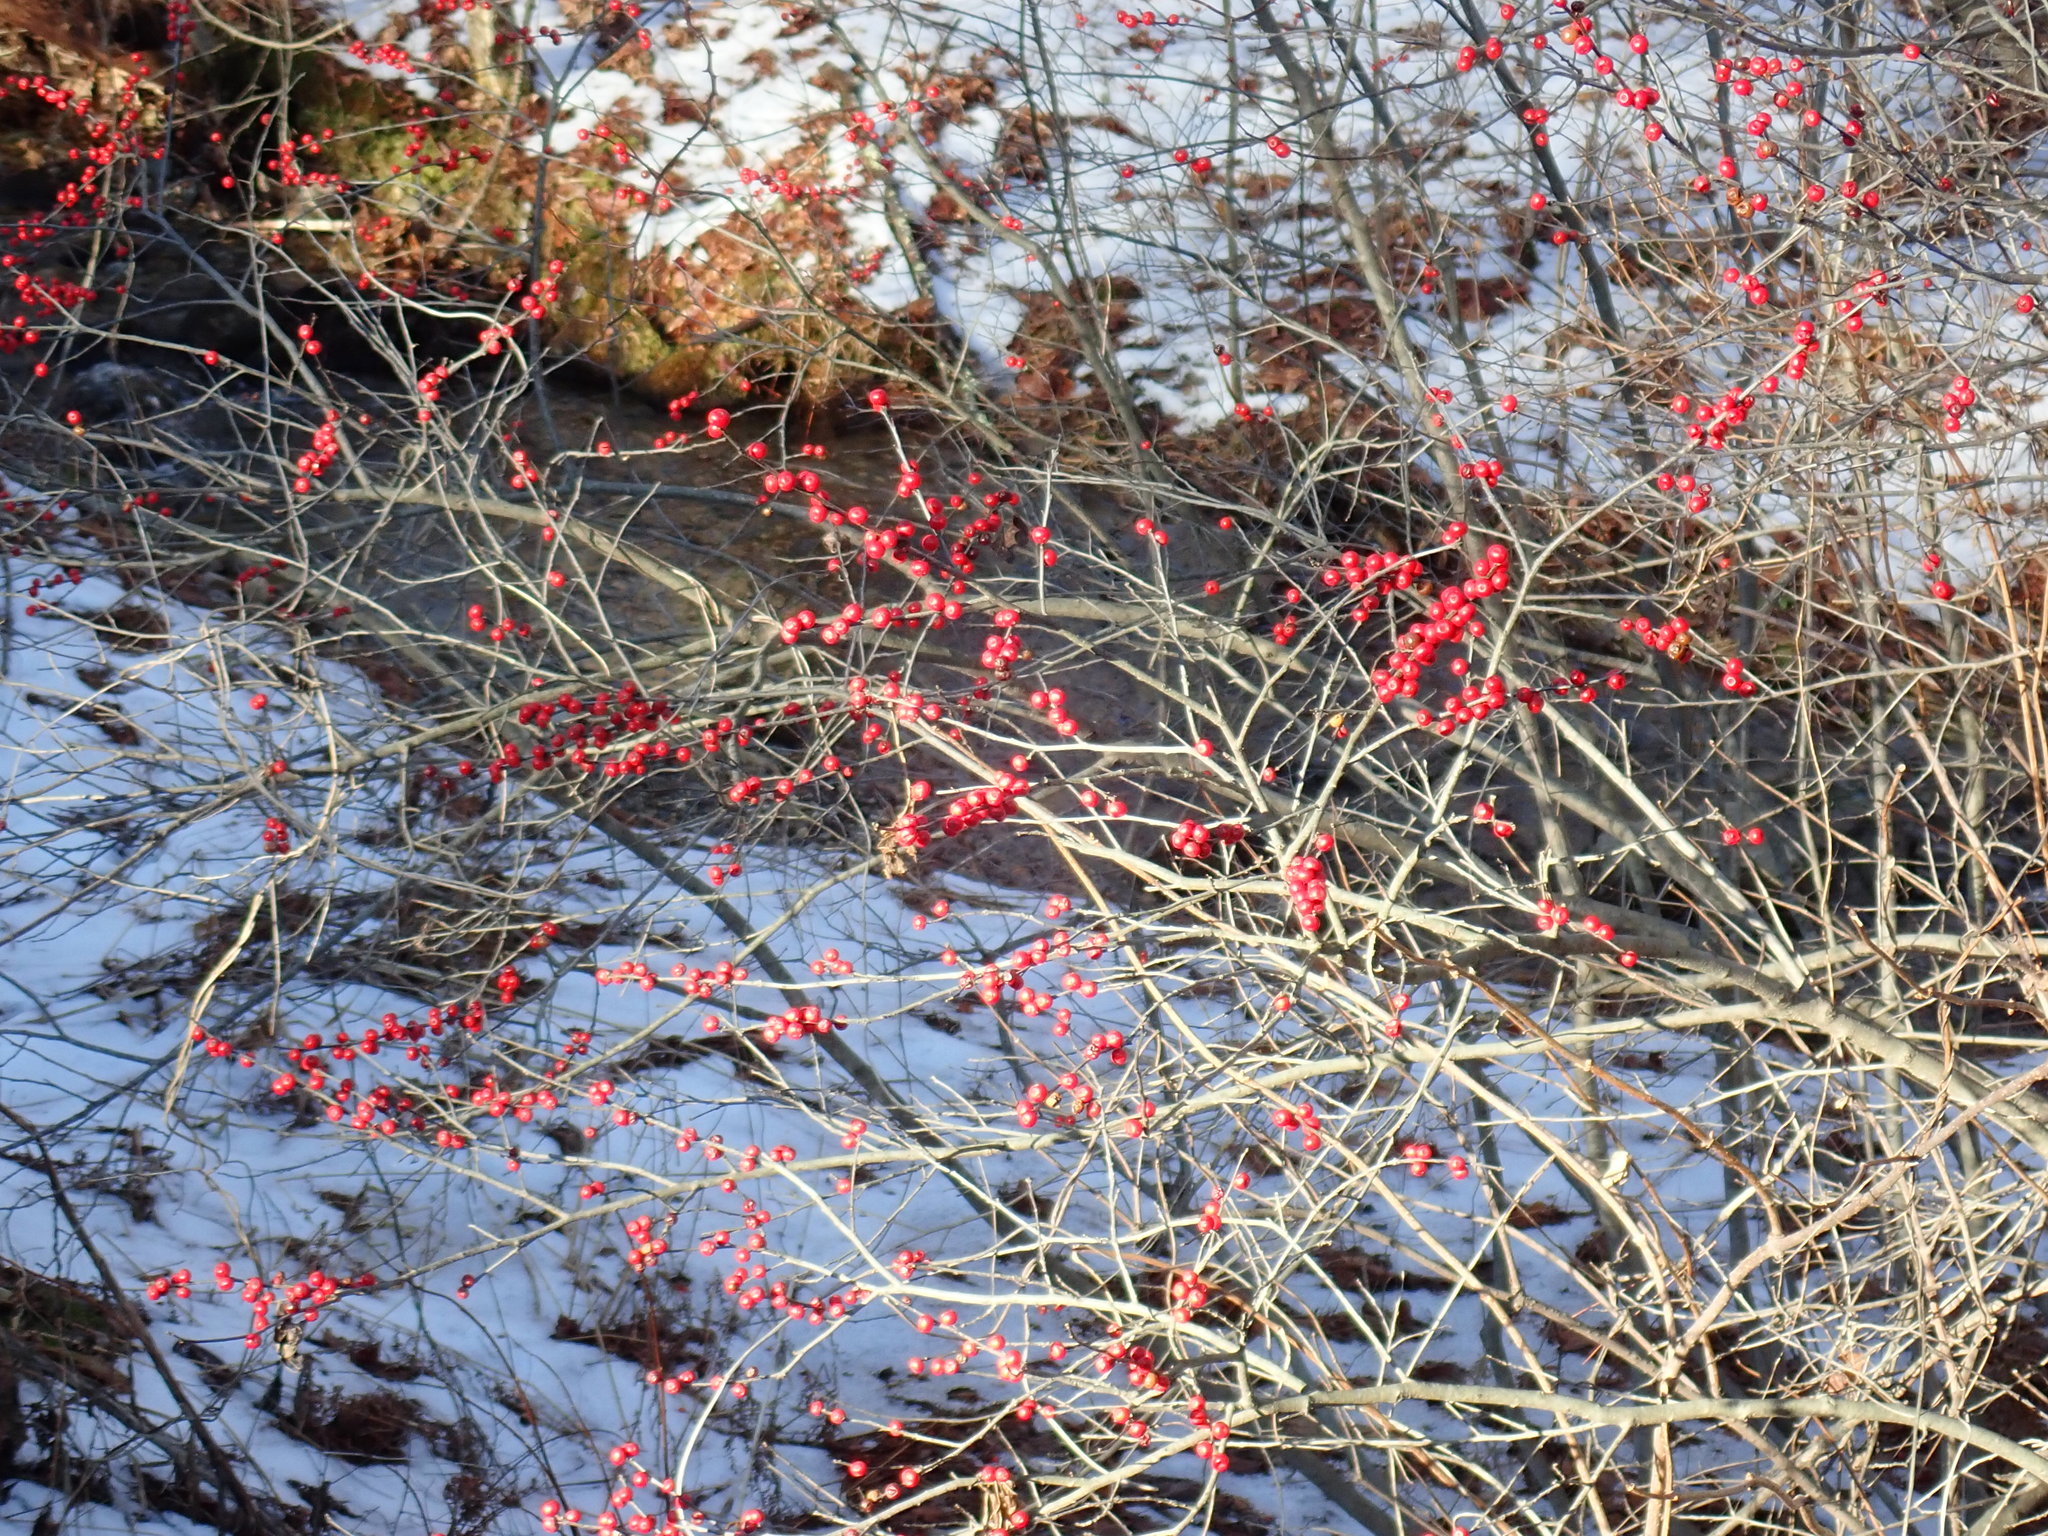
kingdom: Plantae
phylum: Tracheophyta
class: Magnoliopsida
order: Aquifoliales
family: Aquifoliaceae
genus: Ilex
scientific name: Ilex verticillata
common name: Virginia winterberry
